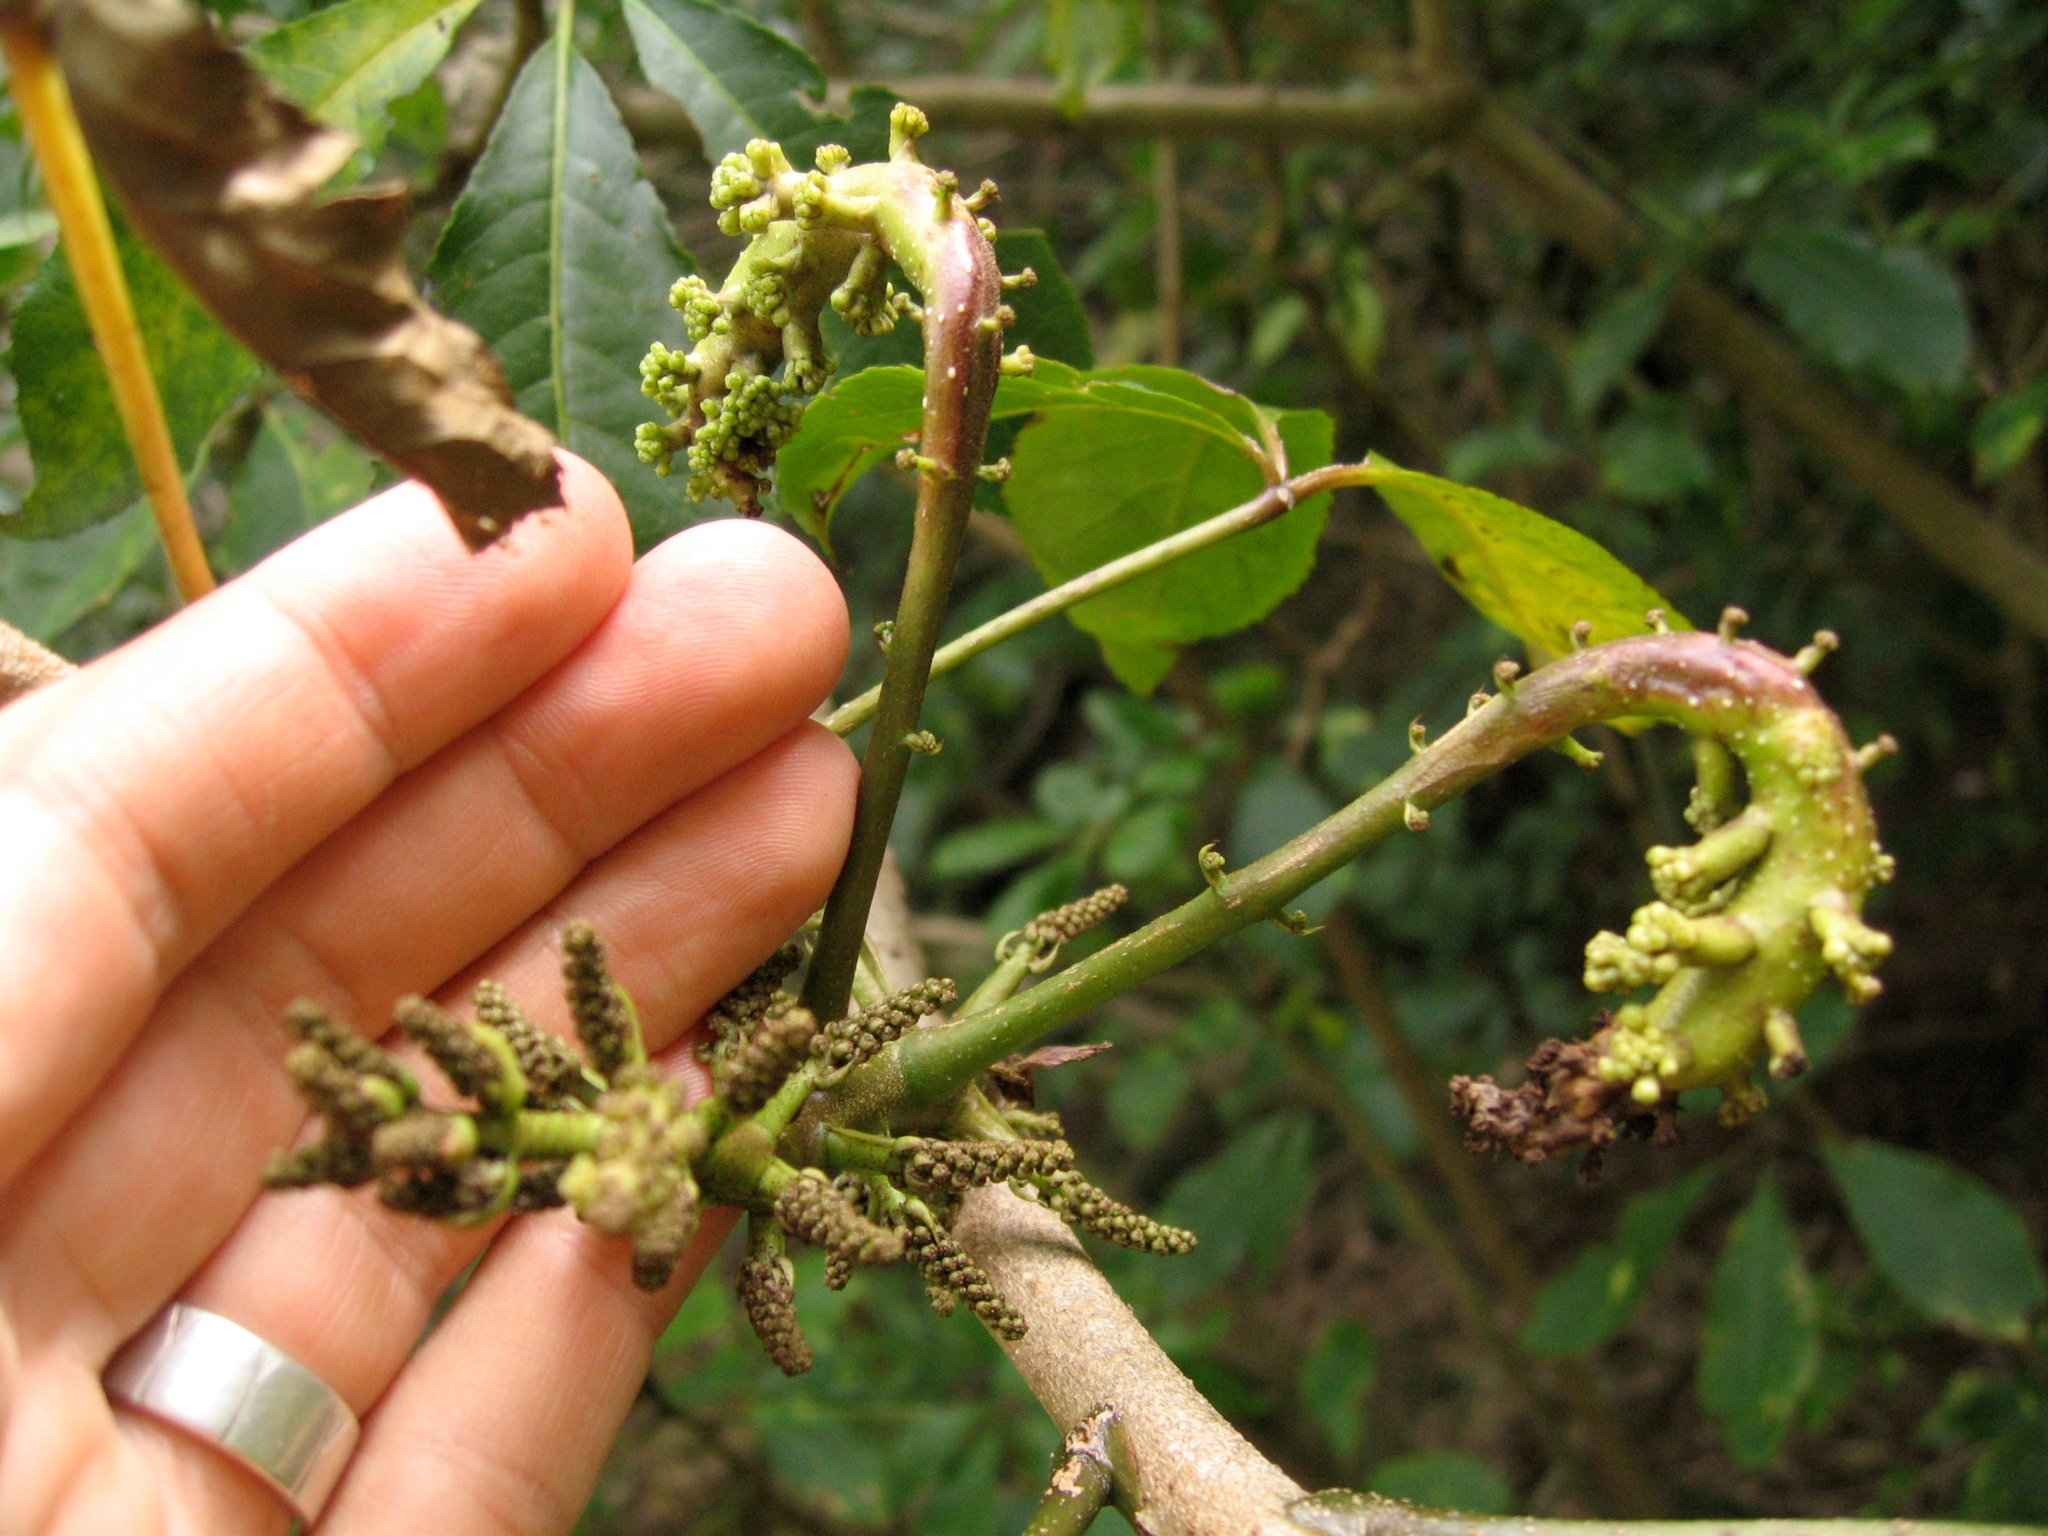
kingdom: Fungi
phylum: Basidiomycota
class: Ustilaginomycetes
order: Urocystidales
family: Urocystidaceae
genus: Mundkurella
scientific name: Mundkurella schefflerae
